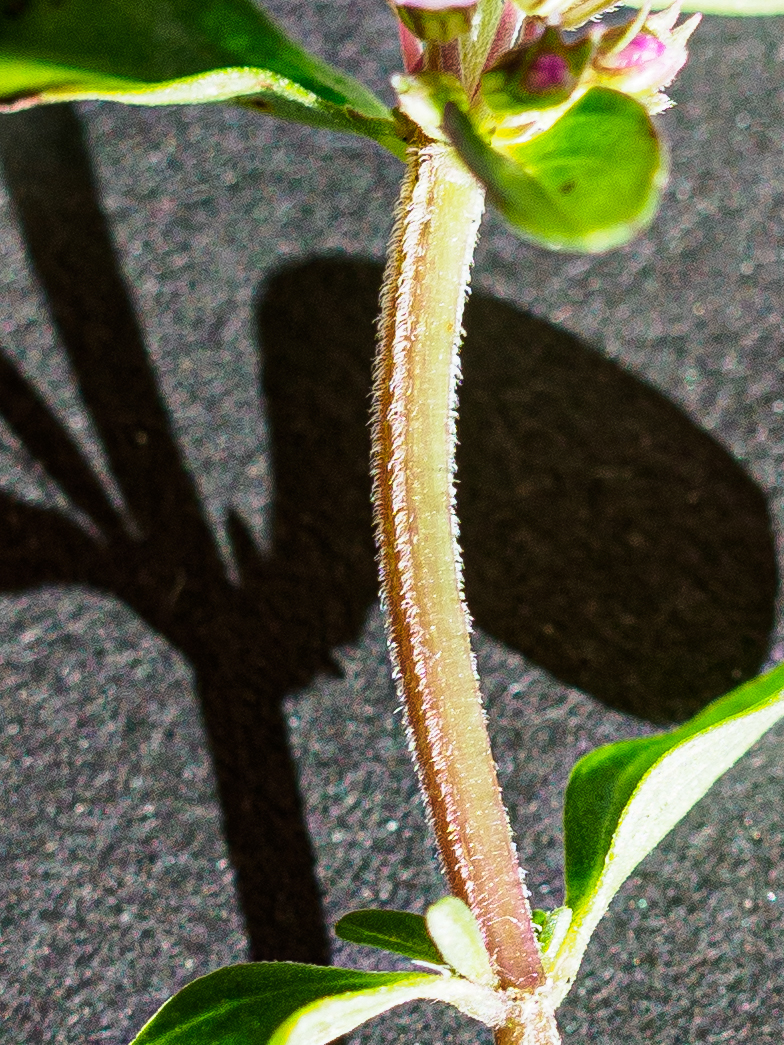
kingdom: Plantae
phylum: Tracheophyta
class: Magnoliopsida
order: Lamiales
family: Lamiaceae
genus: Thymus
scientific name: Thymus pulegioides
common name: Large thyme
